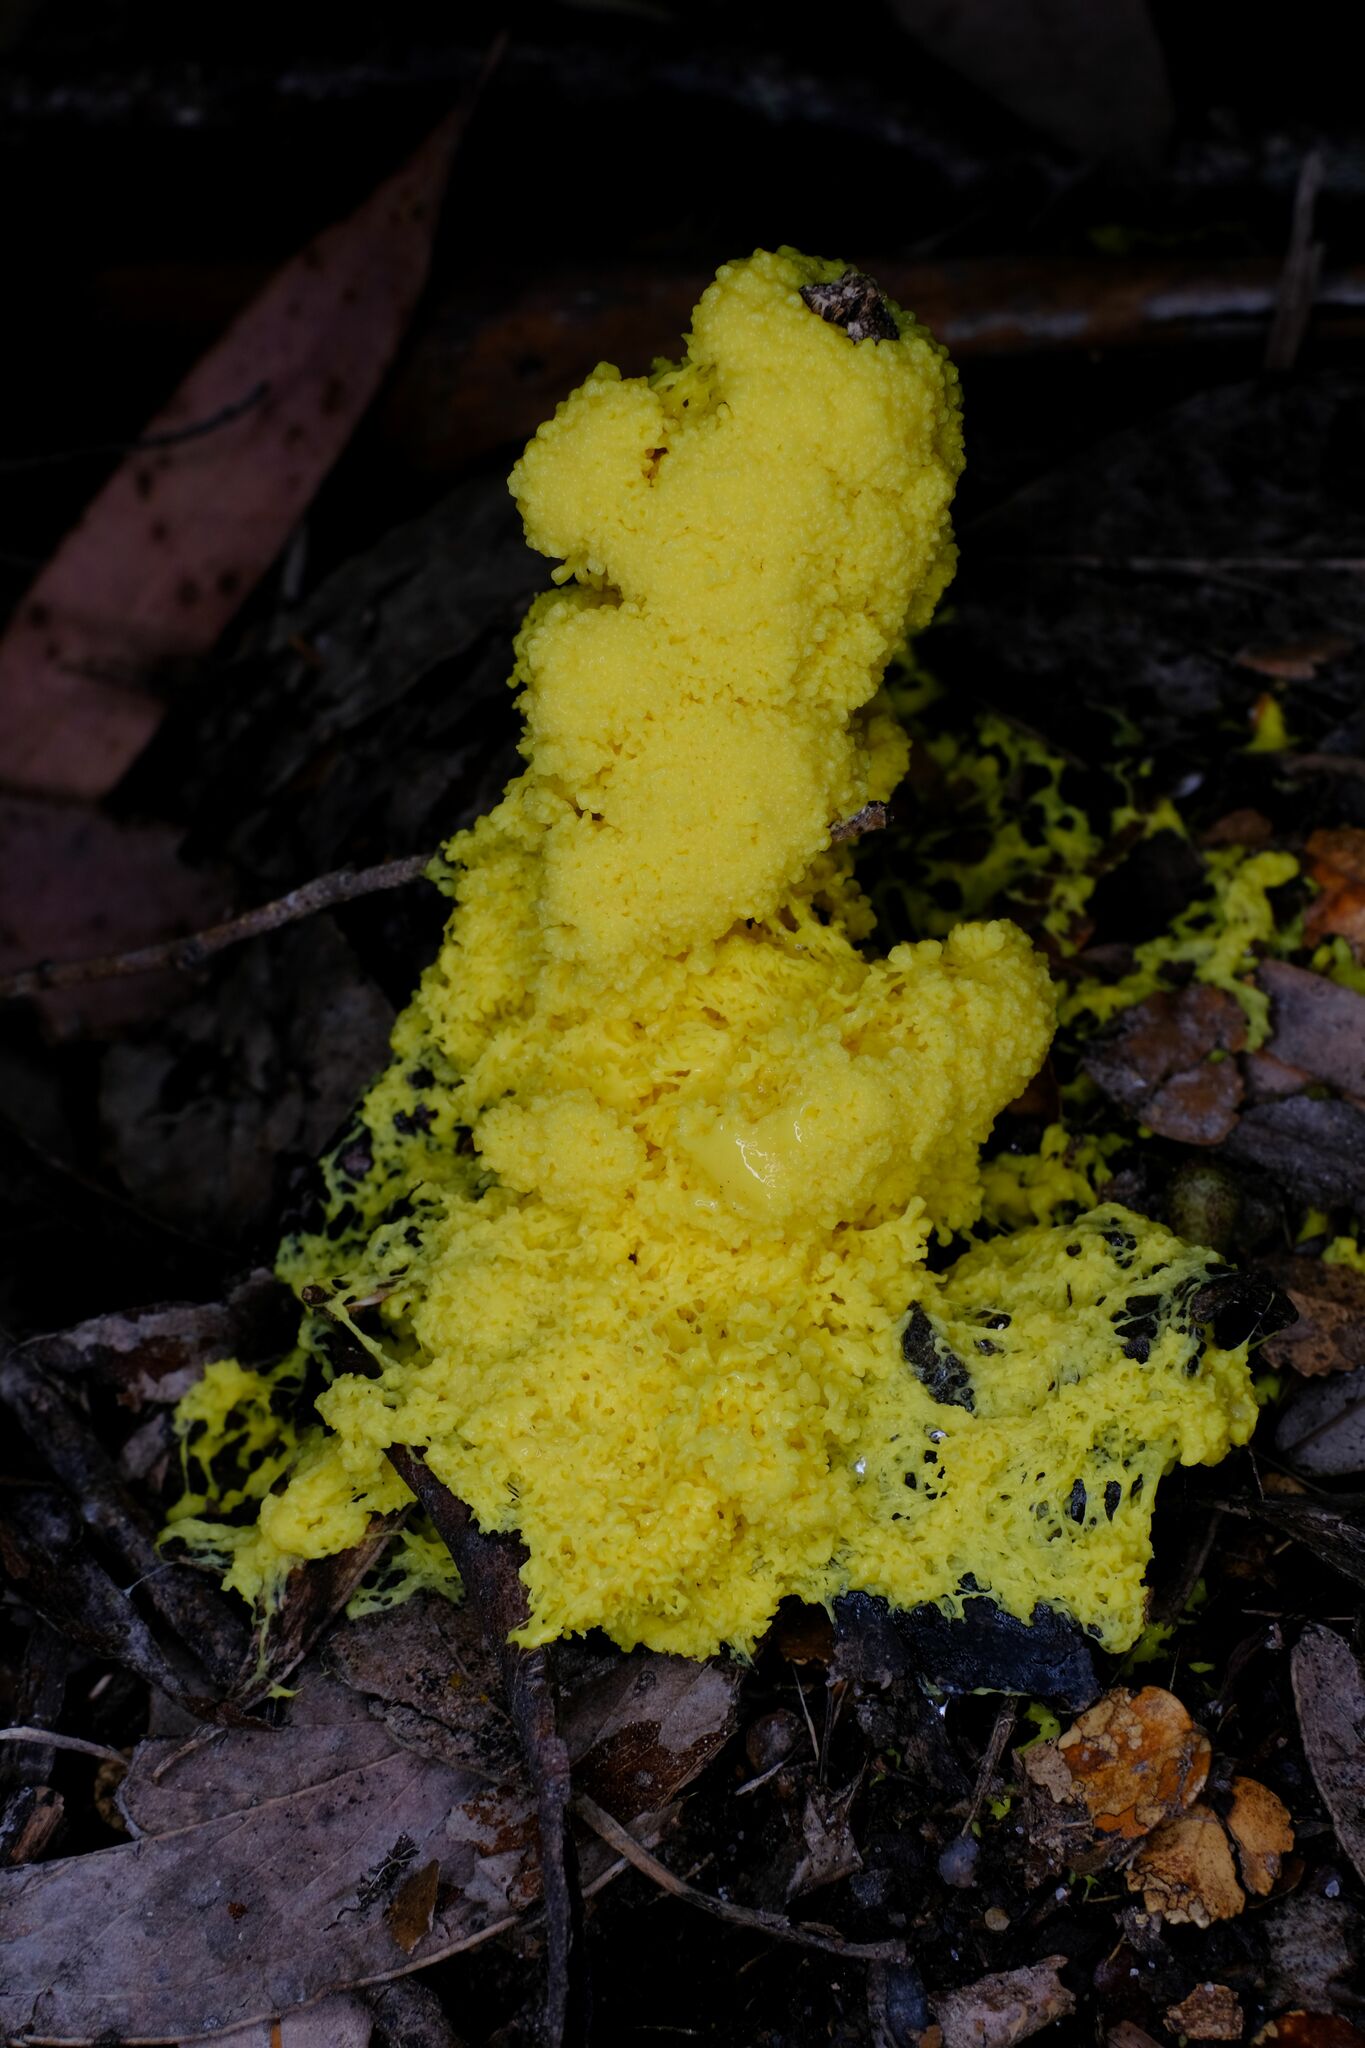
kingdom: Protozoa
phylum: Mycetozoa
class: Myxomycetes
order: Physarales
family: Physaraceae
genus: Fuligo
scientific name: Fuligo septica
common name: Dog vomit slime mold
